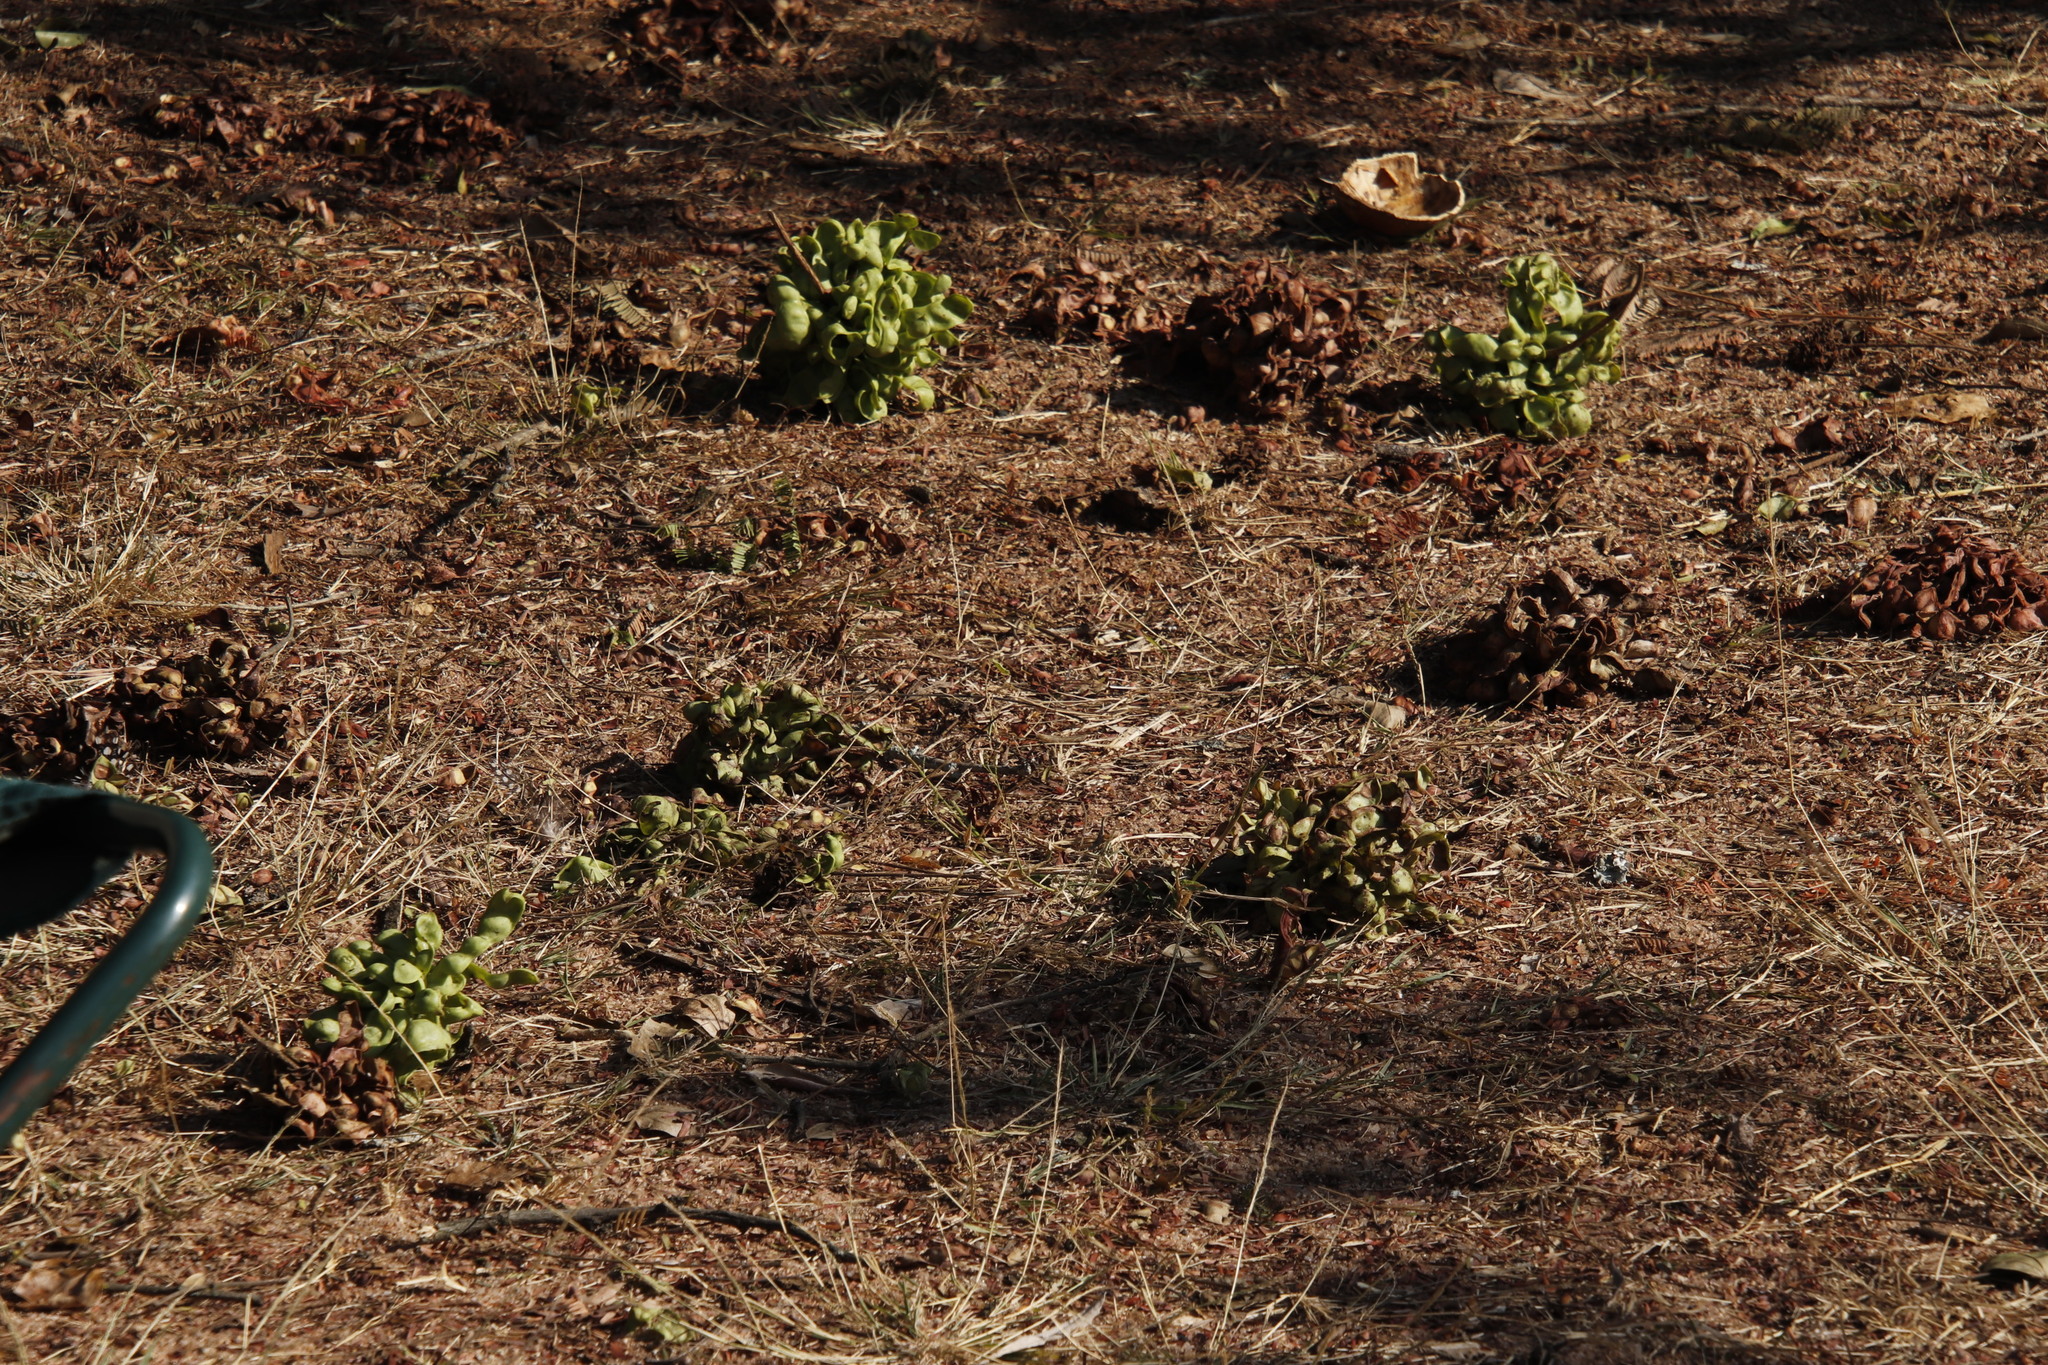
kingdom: Plantae
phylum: Tracheophyta
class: Magnoliopsida
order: Fabales
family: Fabaceae
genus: Dichrostachys
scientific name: Dichrostachys cinerea
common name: Sicklebush
